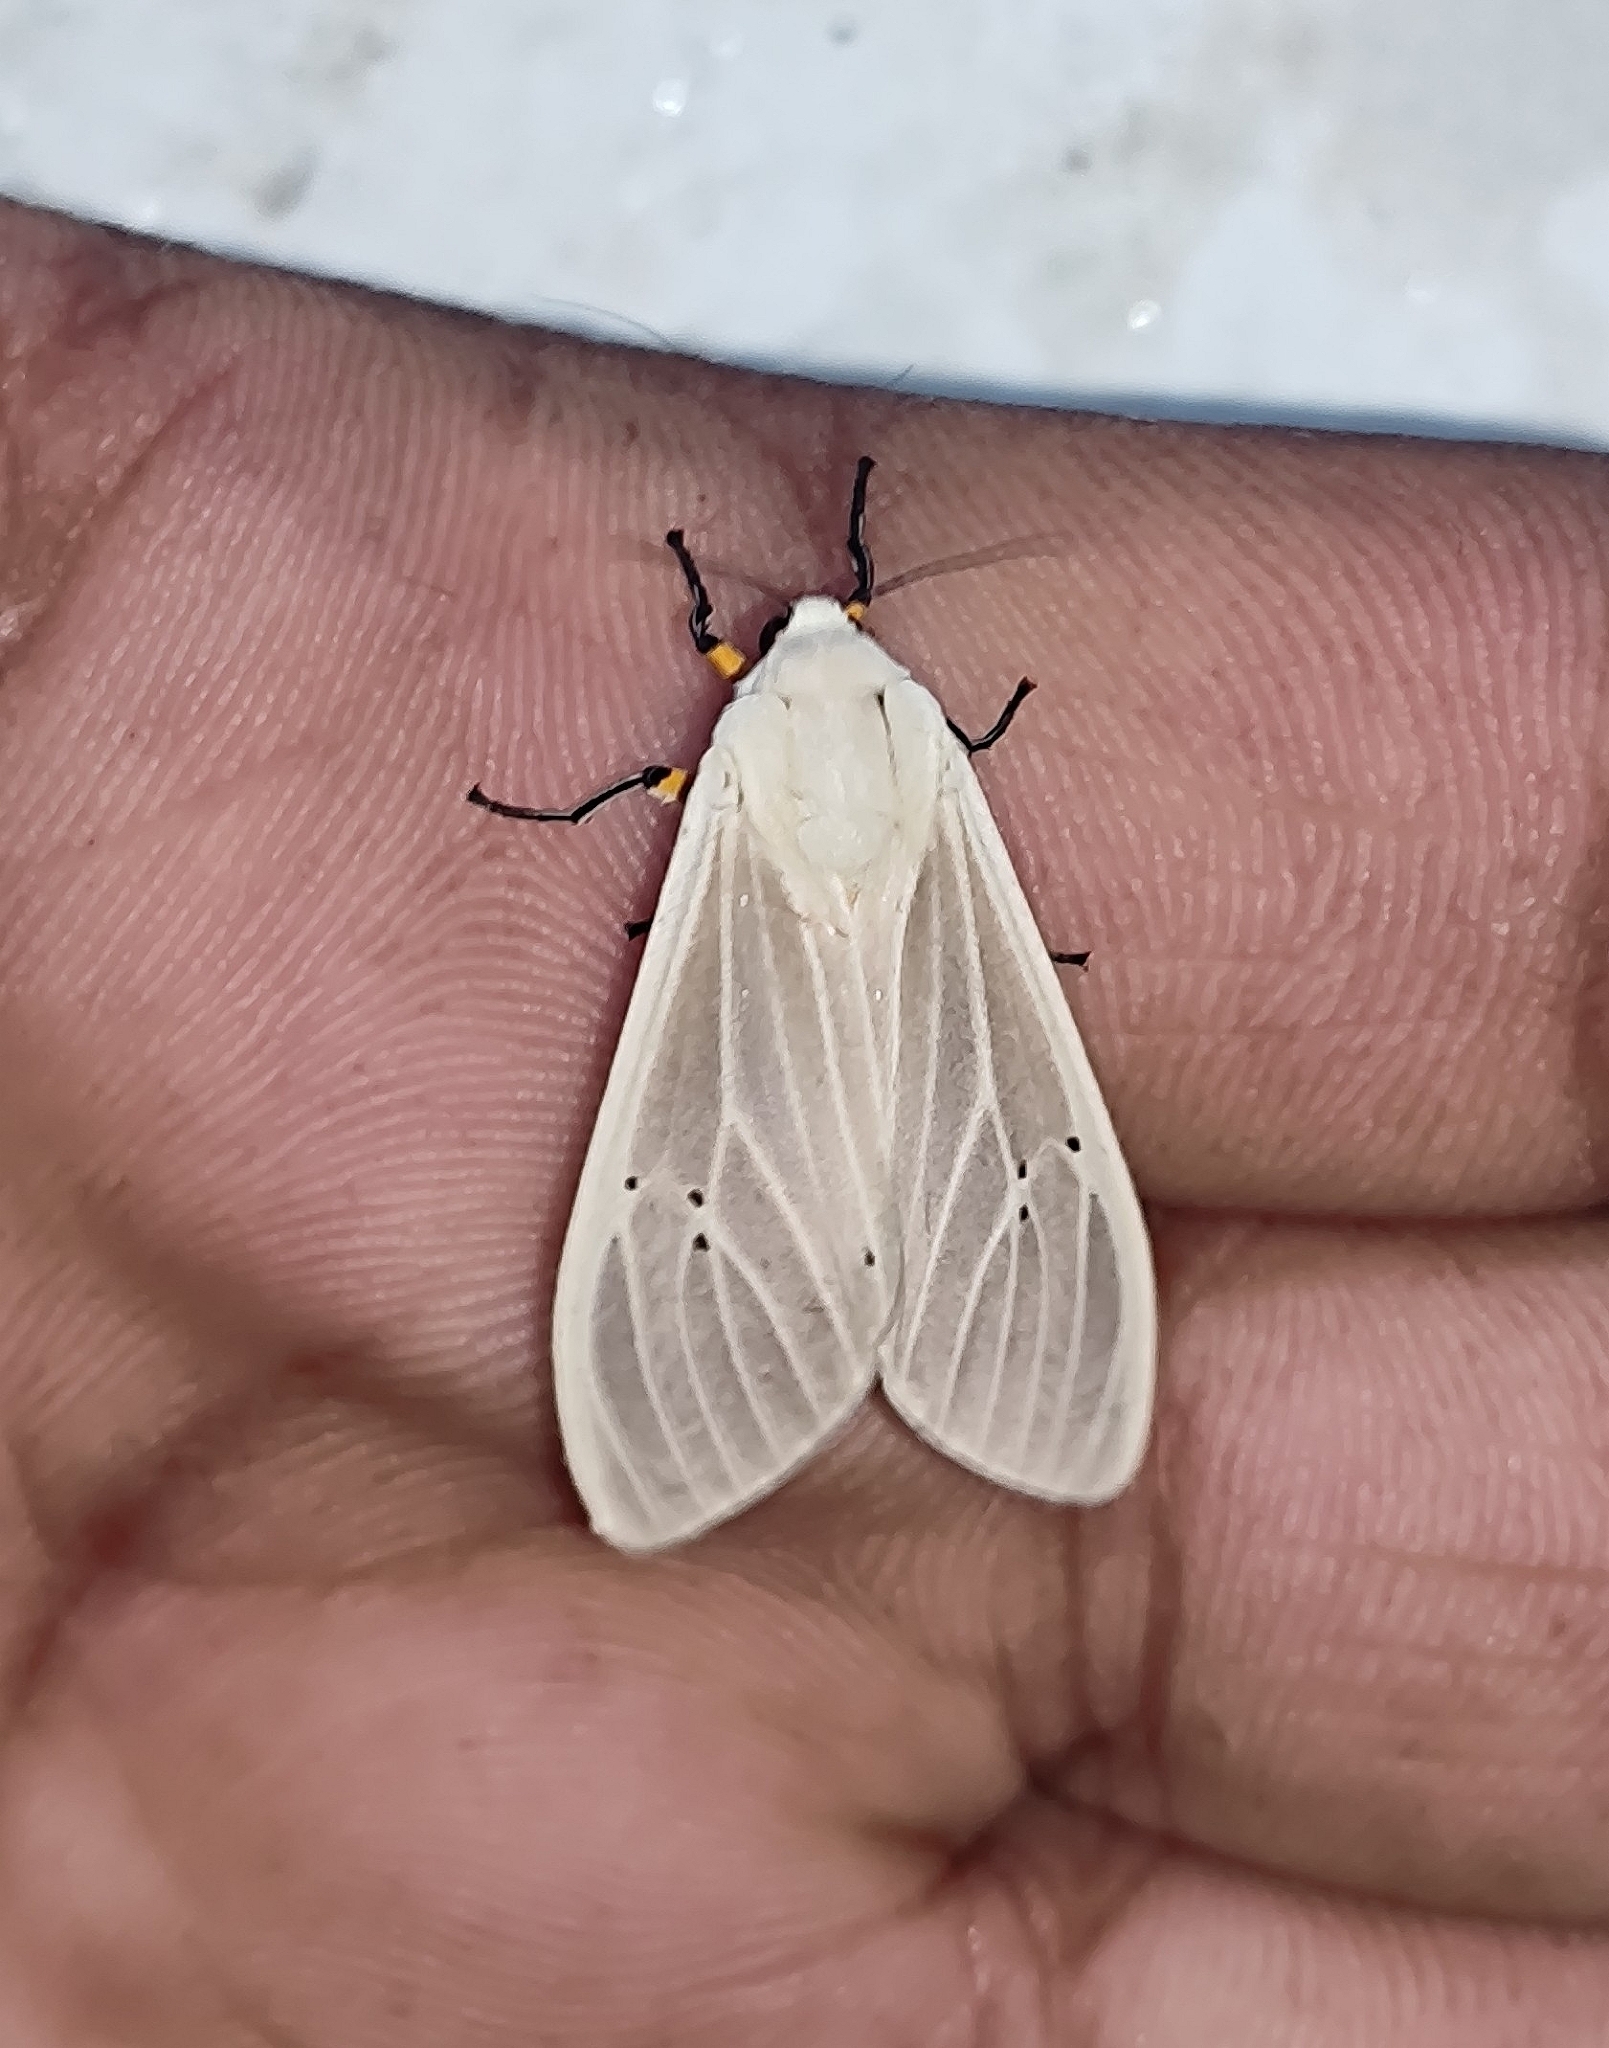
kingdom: Animalia
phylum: Arthropoda
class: Insecta
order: Lepidoptera
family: Erebidae
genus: Creatonotos
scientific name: Creatonotos transiens
